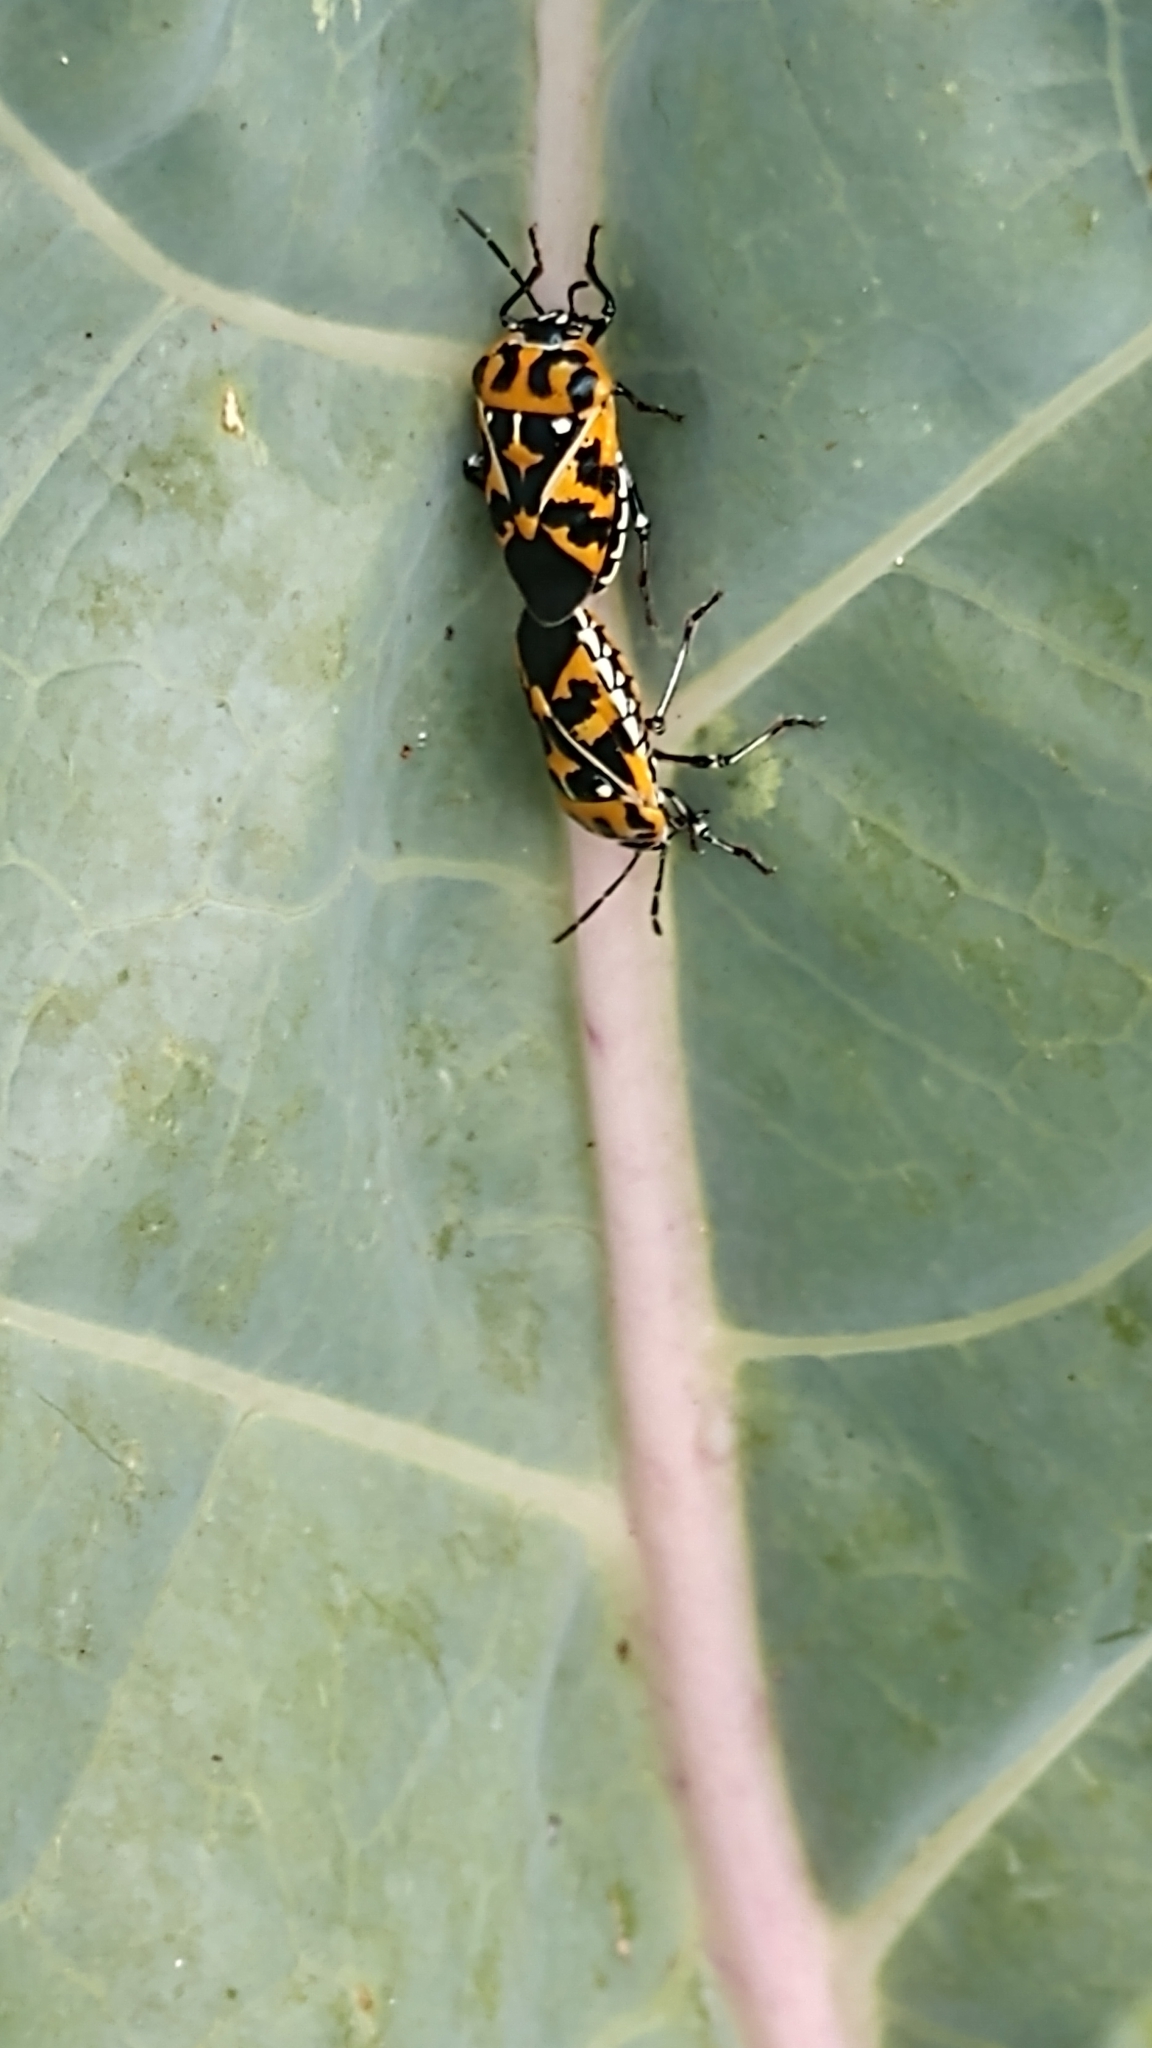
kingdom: Animalia
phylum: Arthropoda
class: Insecta
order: Hemiptera
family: Pentatomidae
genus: Murgantia
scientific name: Murgantia histrionica
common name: Harlequin bug
